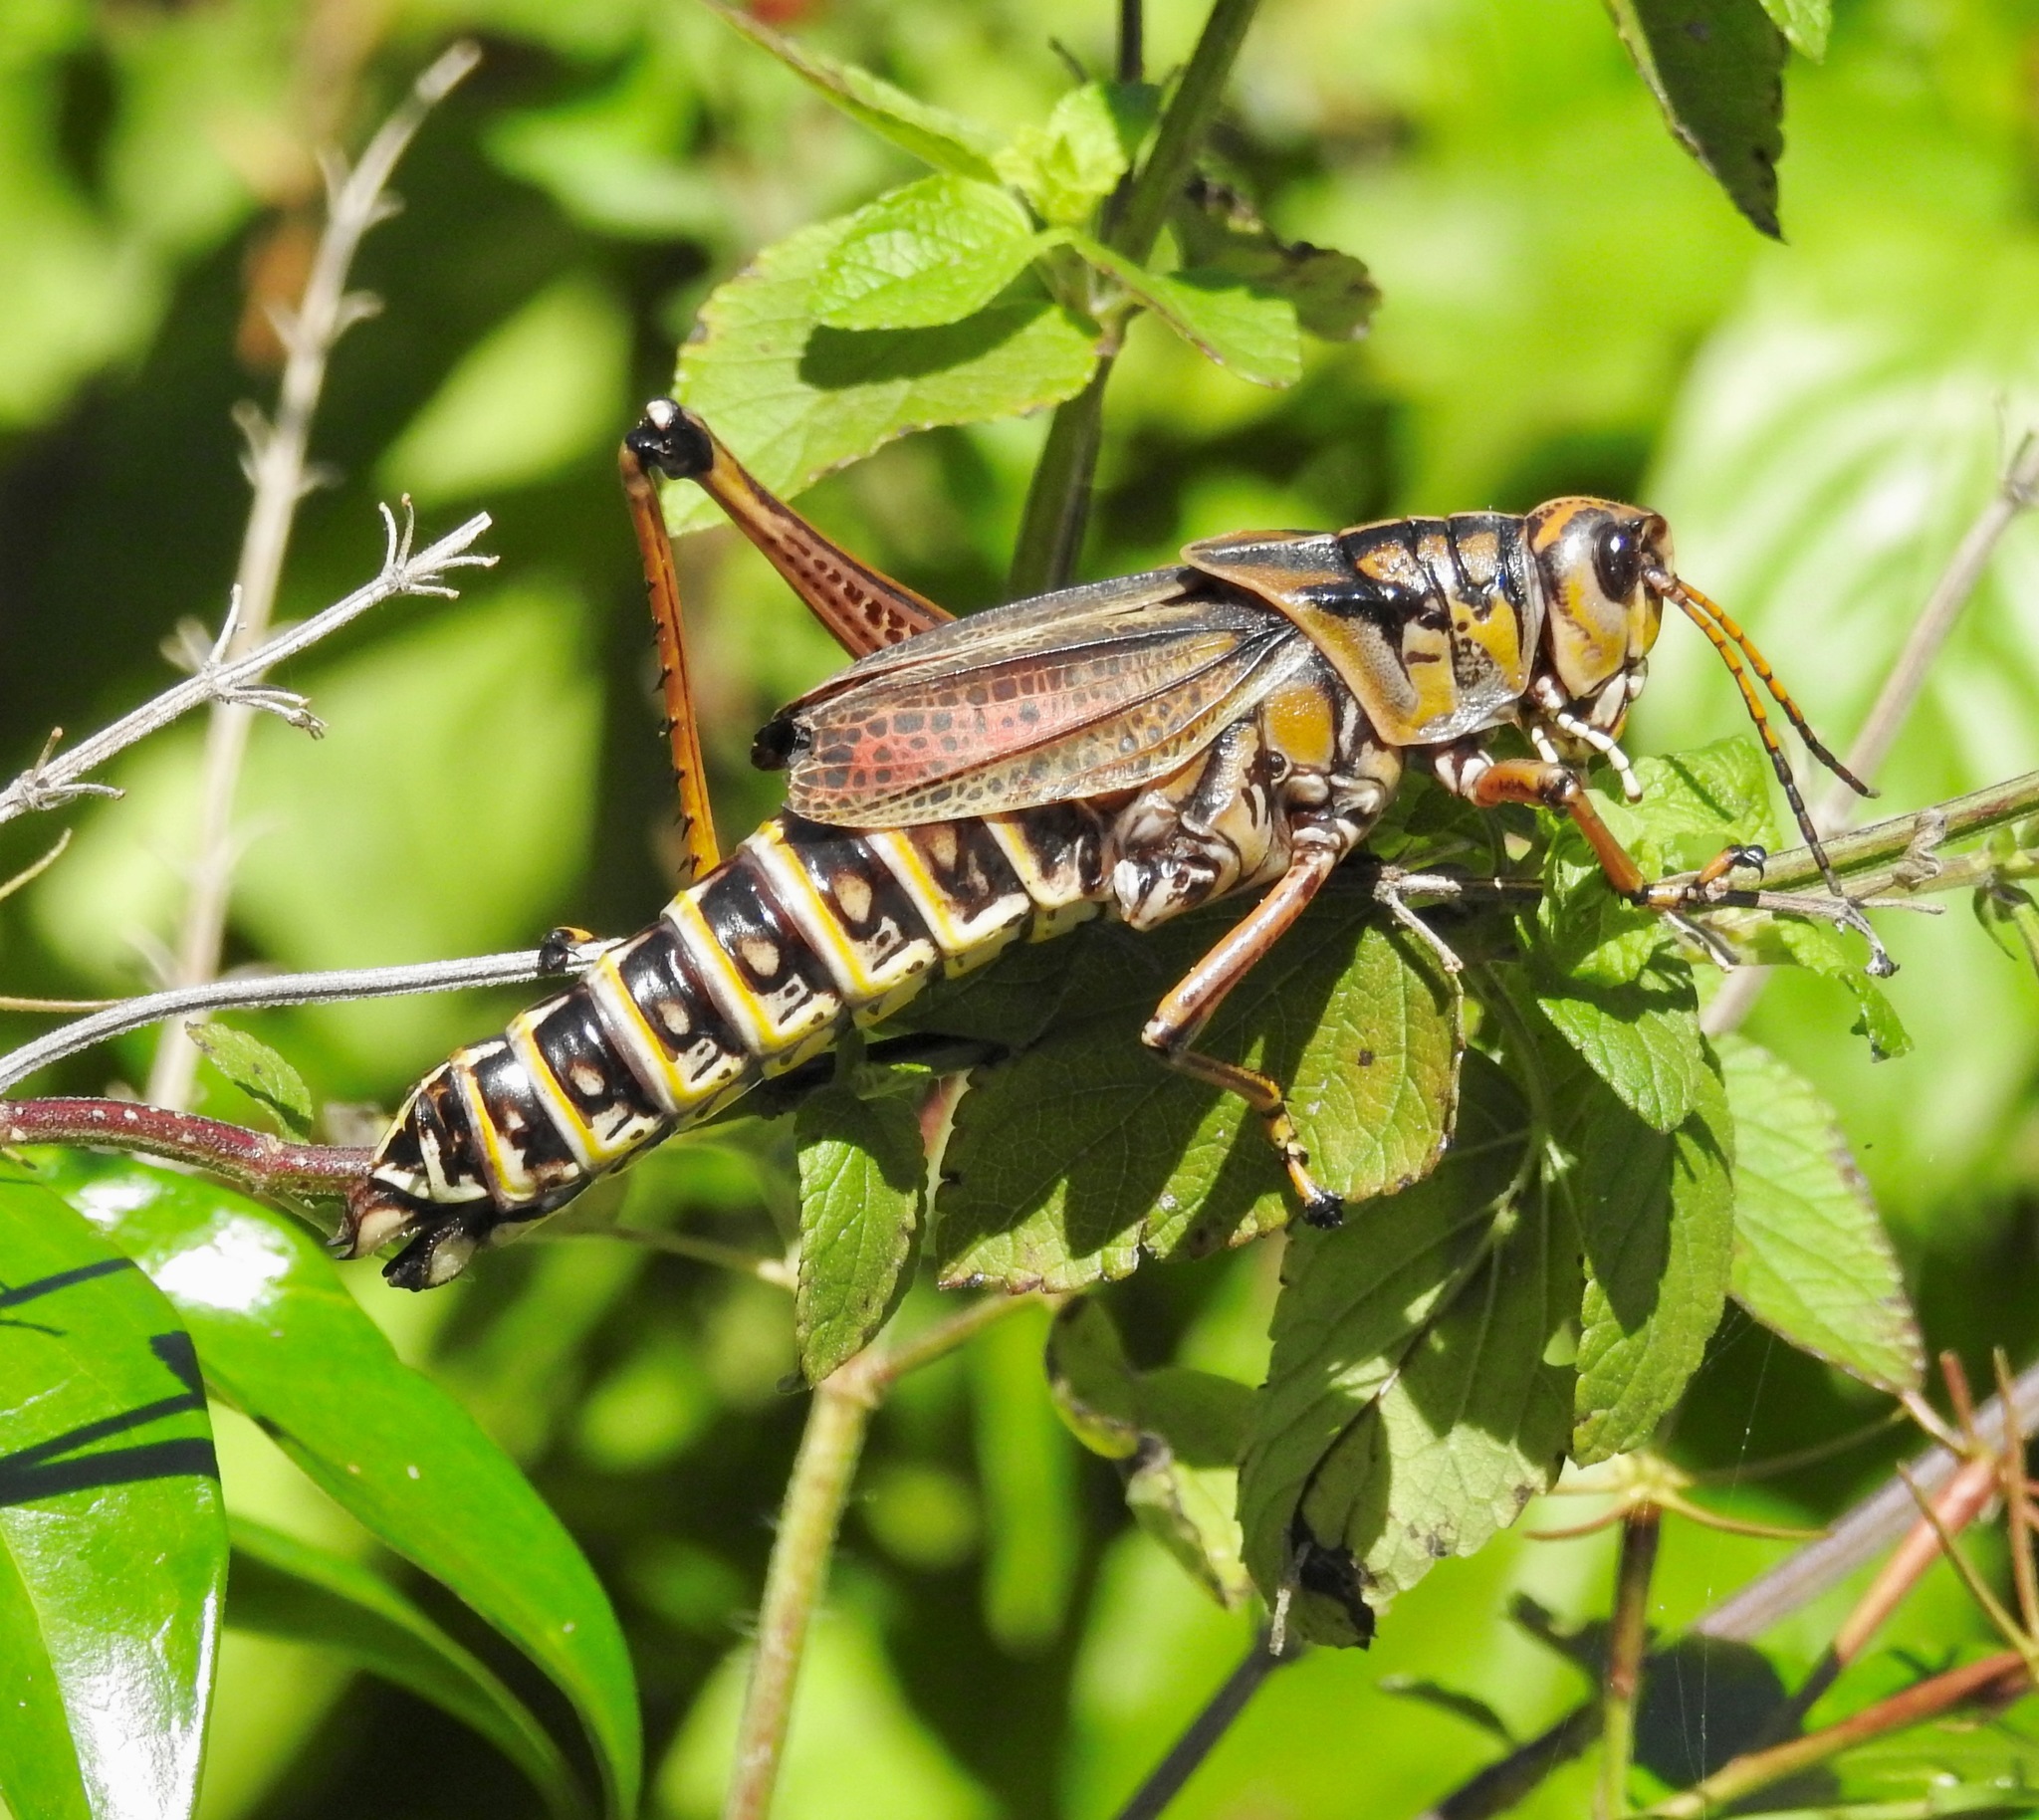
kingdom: Animalia
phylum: Arthropoda
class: Insecta
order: Orthoptera
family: Romaleidae
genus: Romalea
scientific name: Romalea microptera
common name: Eastern lubber grasshopper
